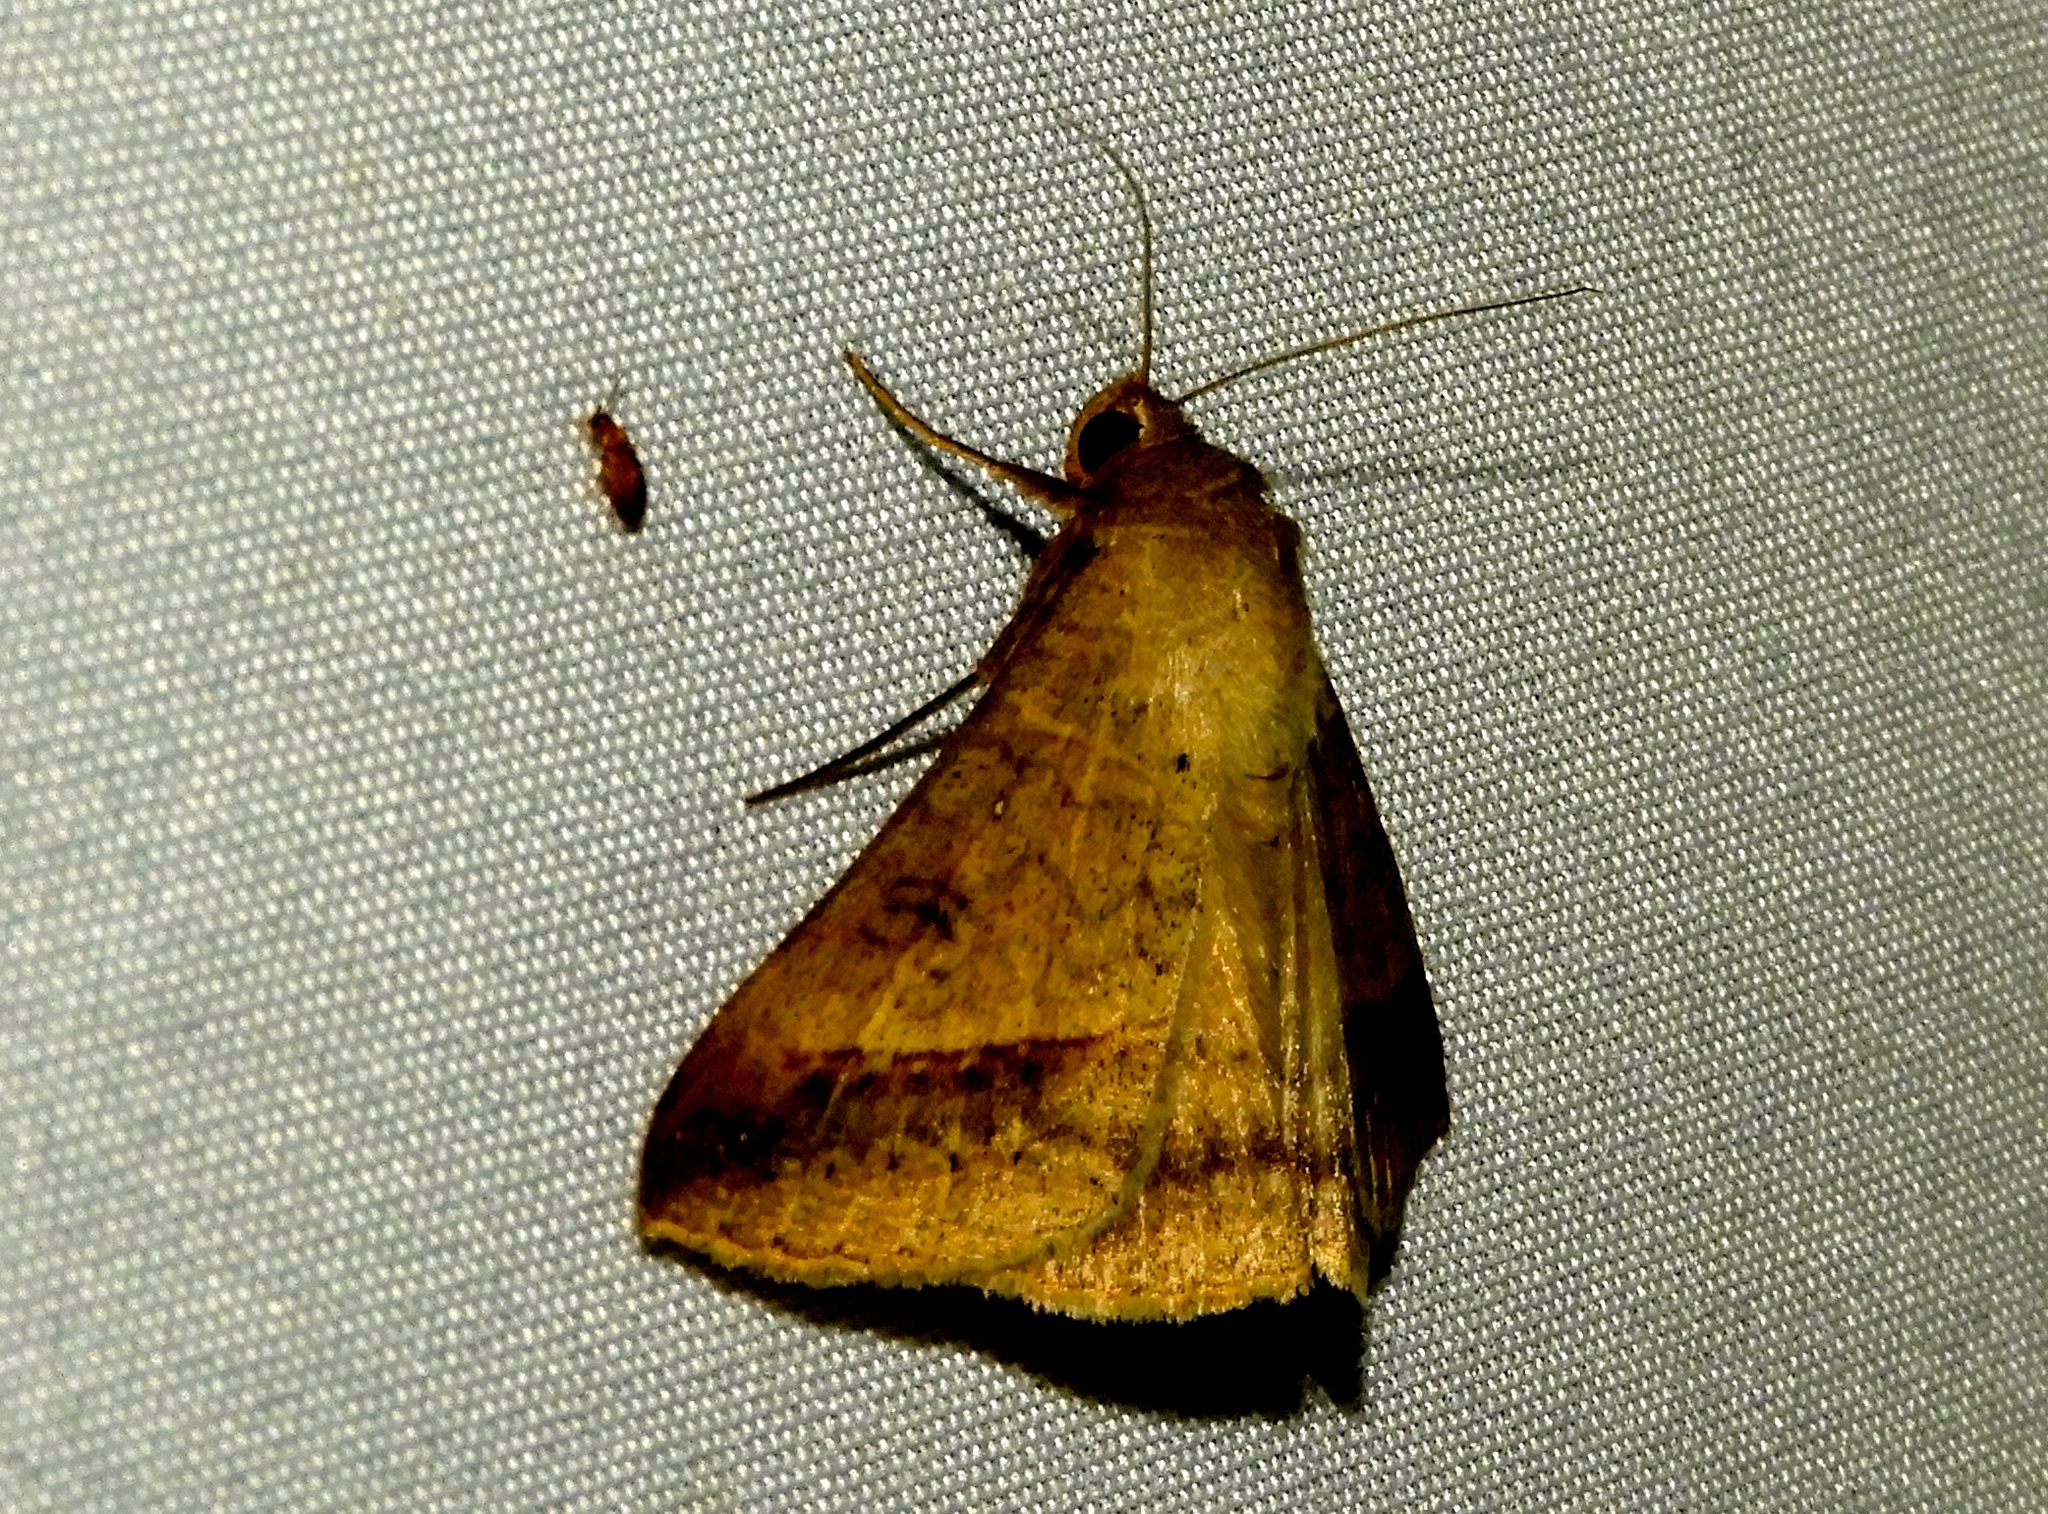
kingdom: Animalia
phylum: Arthropoda
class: Insecta
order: Lepidoptera
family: Erebidae
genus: Mocis
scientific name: Mocis
